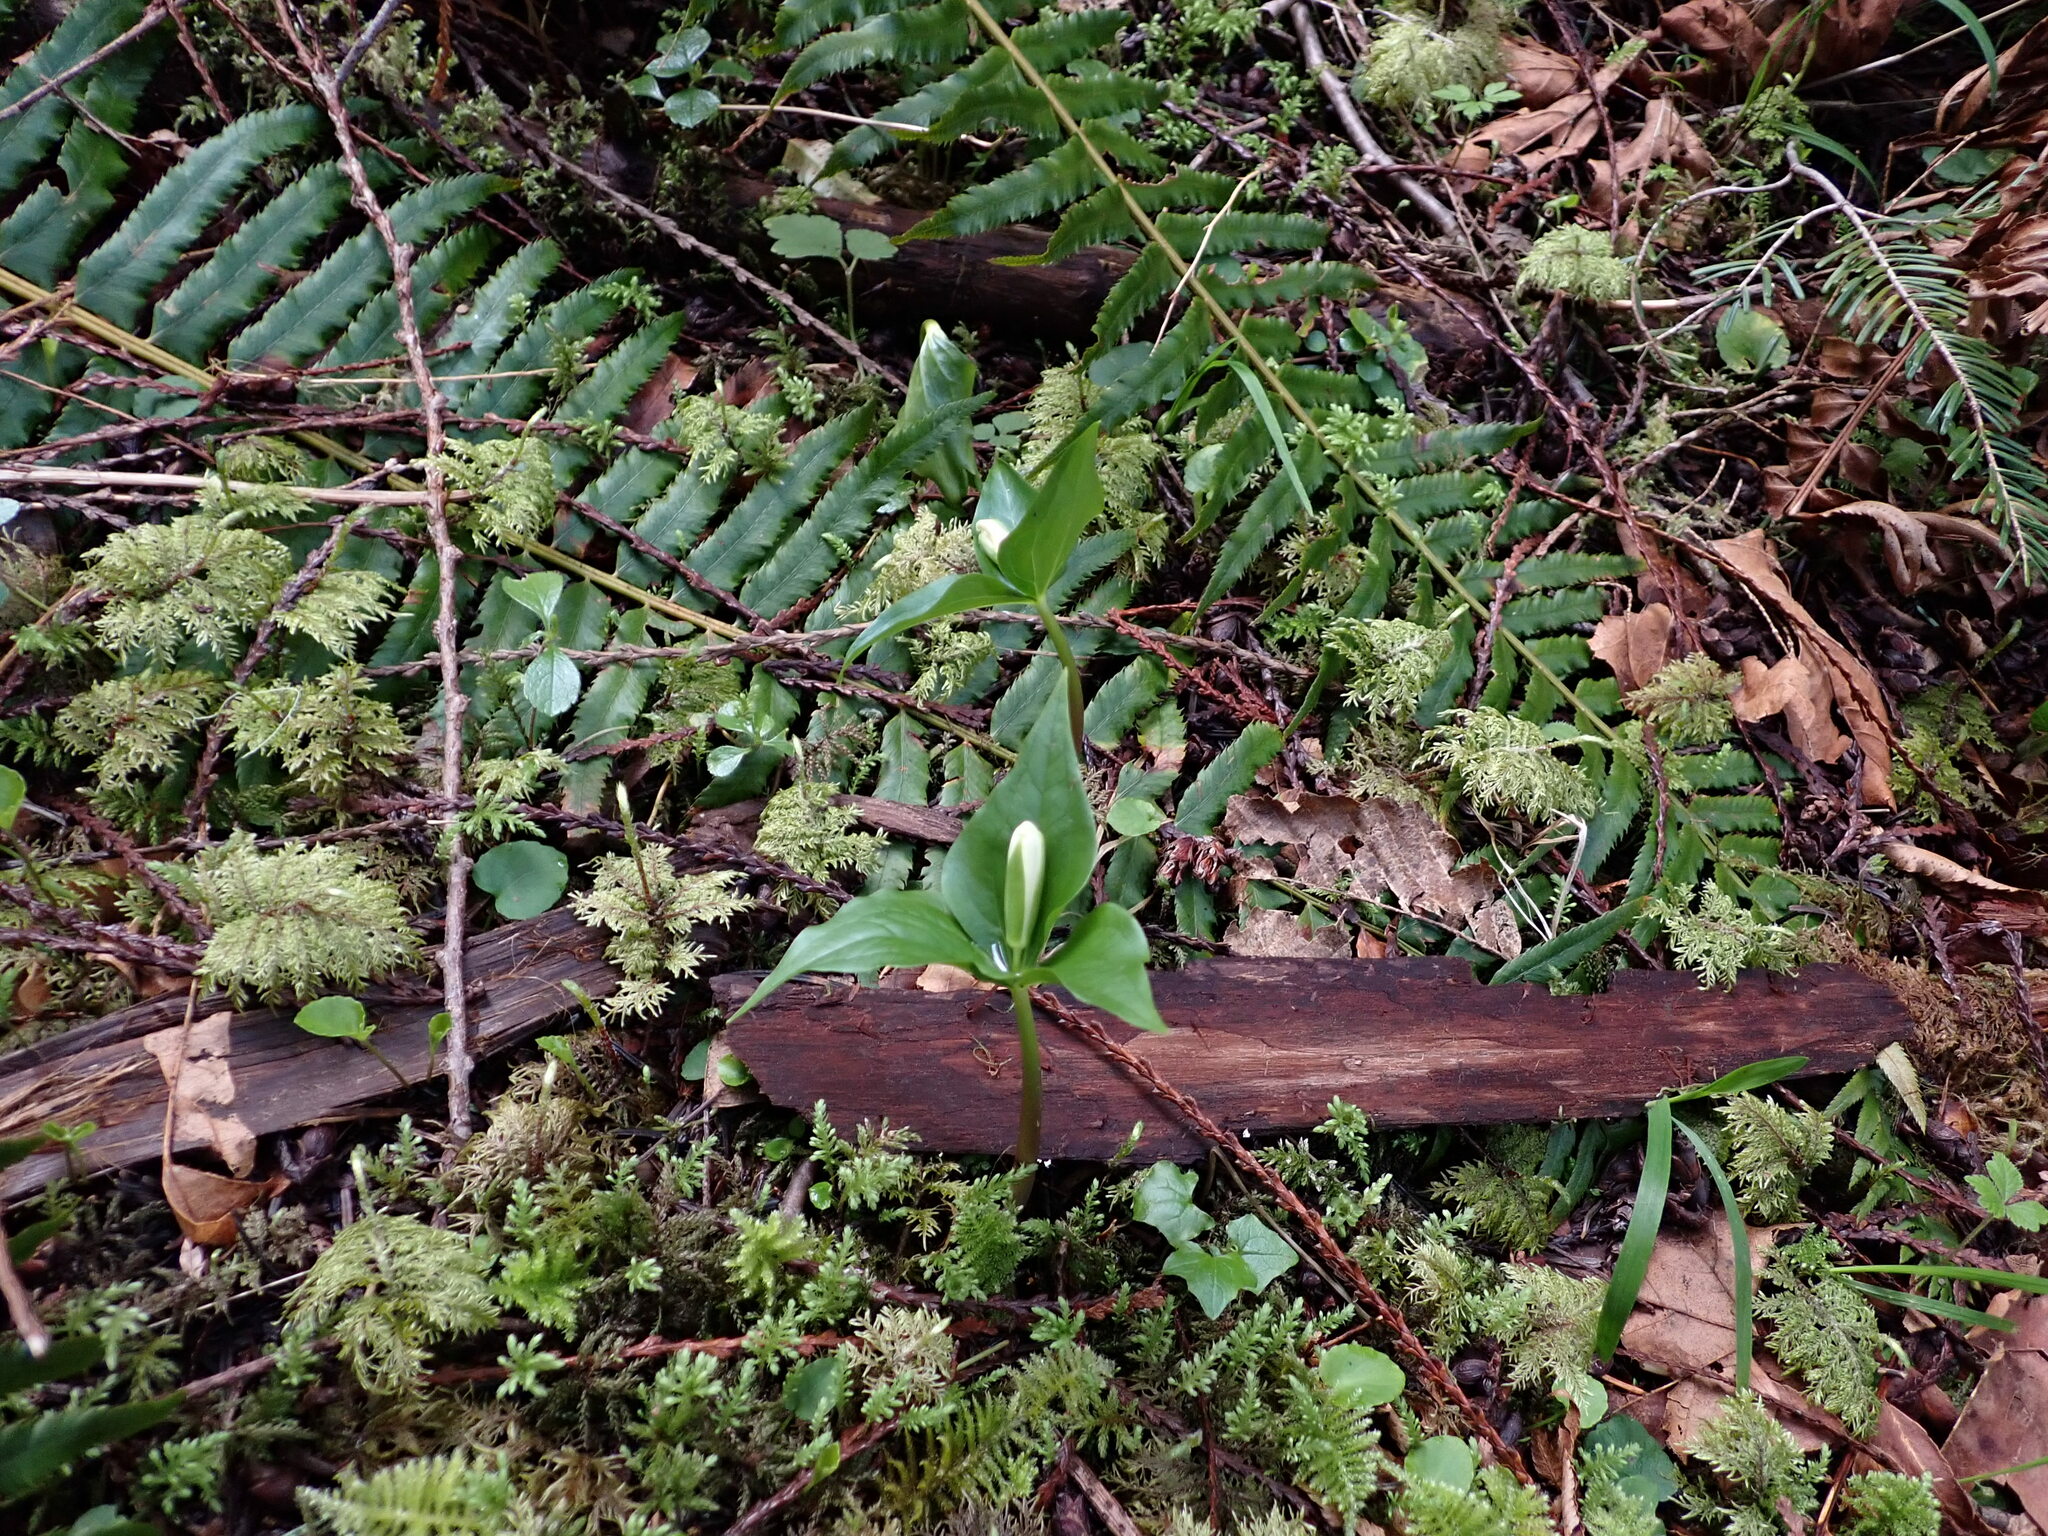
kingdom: Plantae
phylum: Tracheophyta
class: Liliopsida
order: Liliales
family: Melanthiaceae
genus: Trillium
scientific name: Trillium ovatum
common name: Pacific trillium
